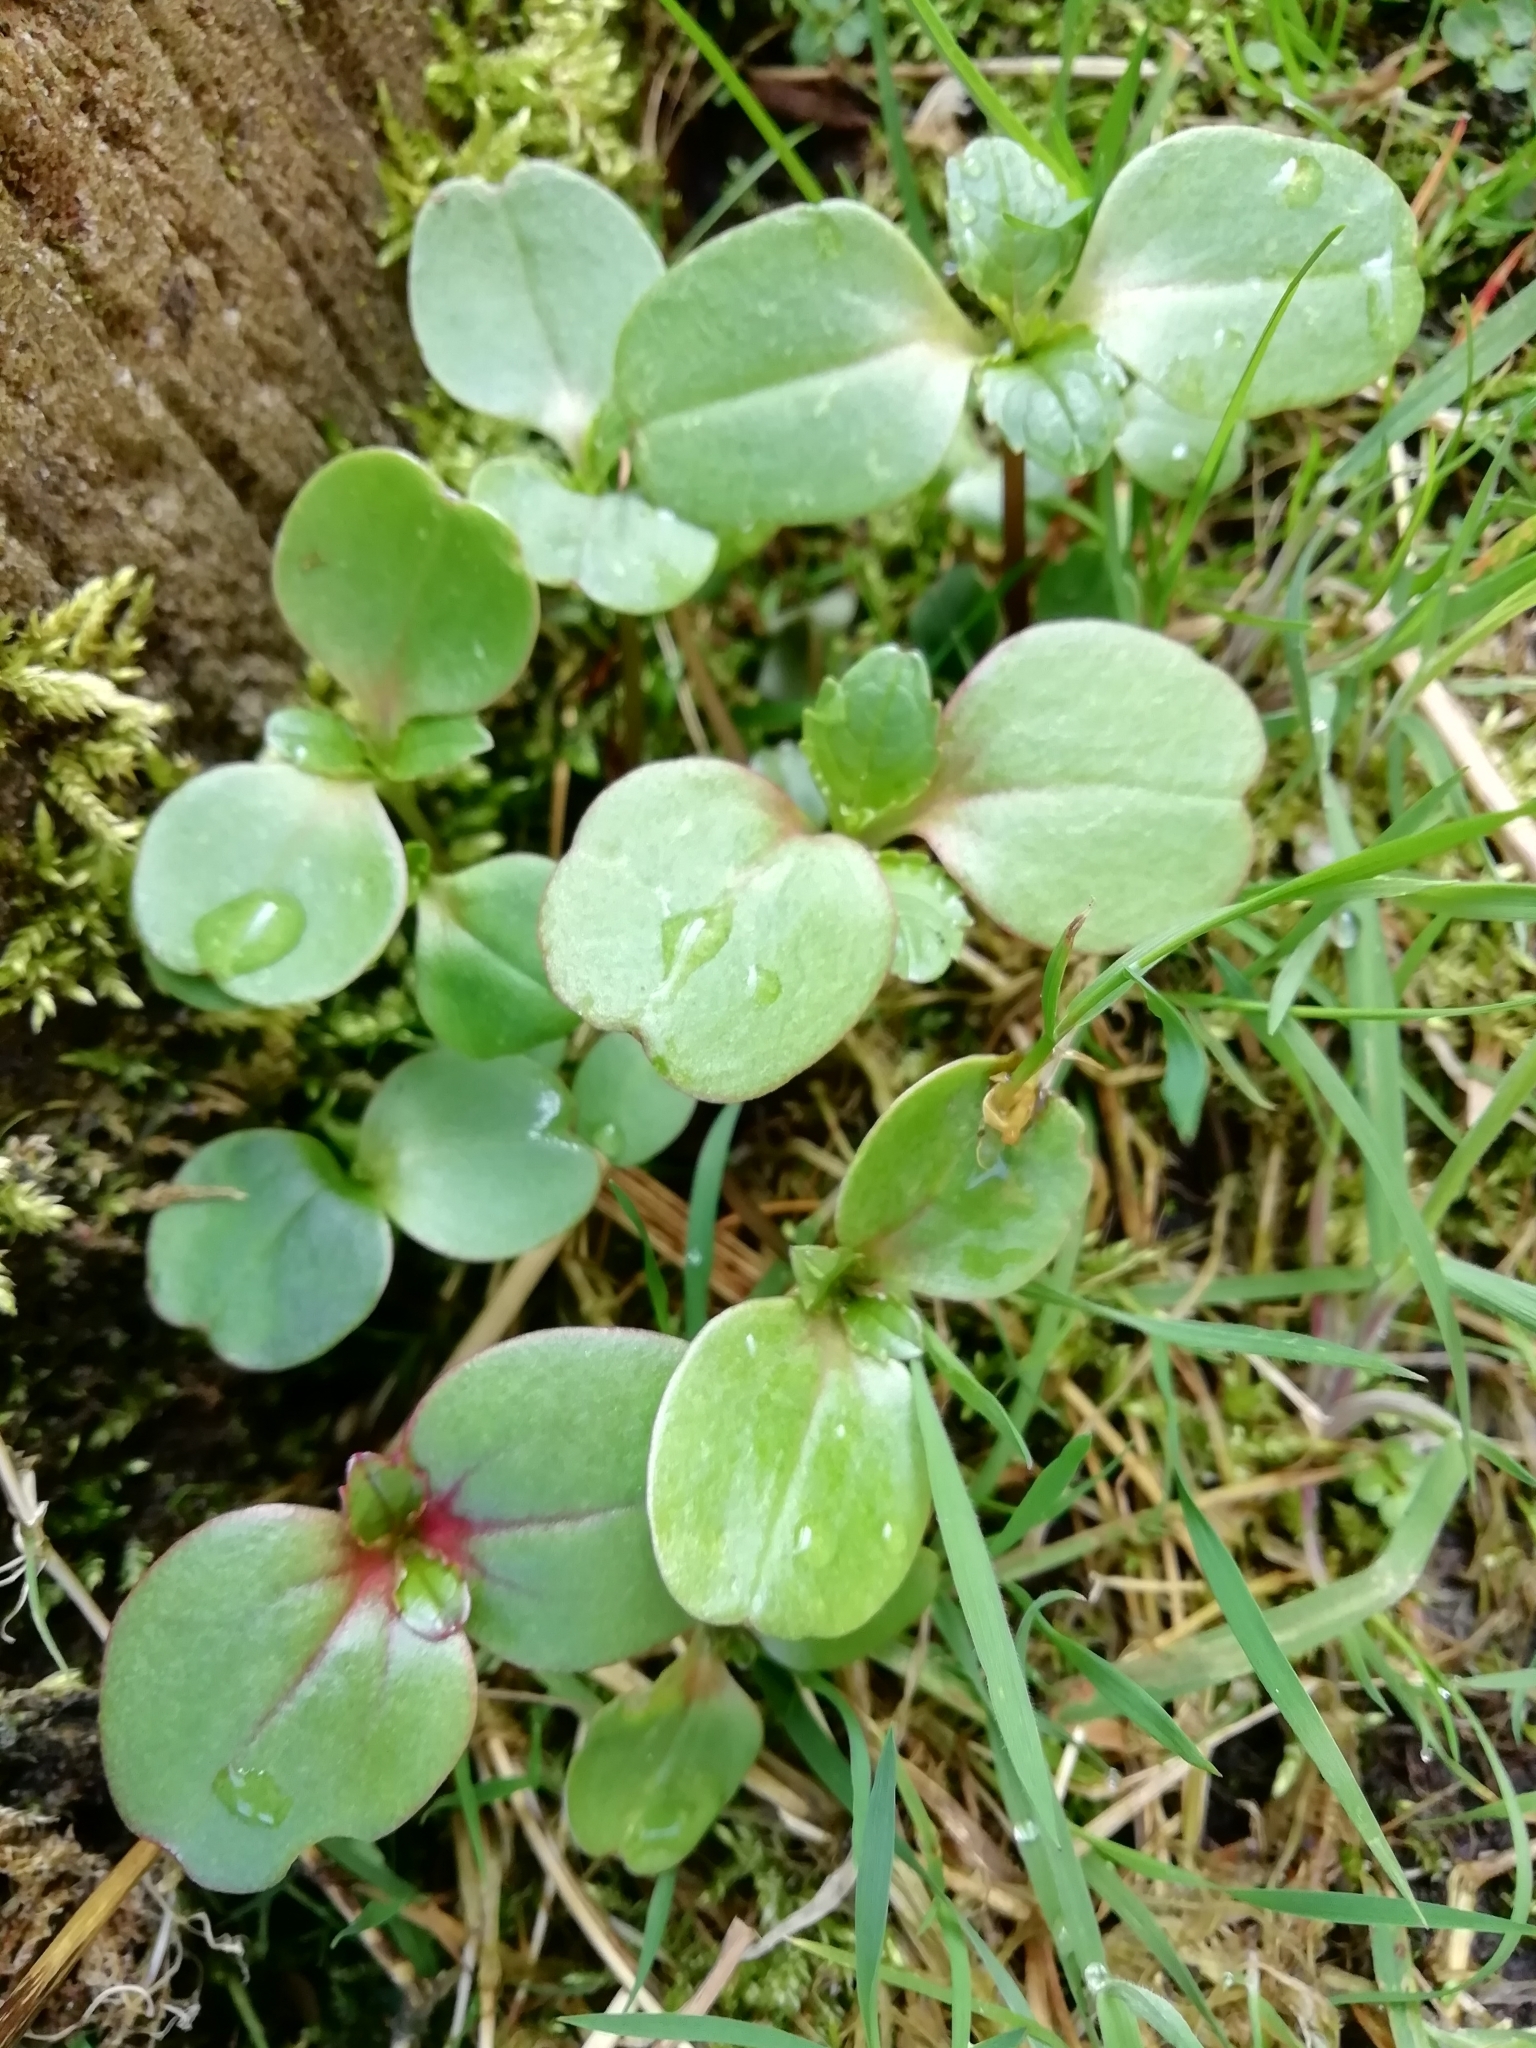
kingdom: Plantae
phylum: Tracheophyta
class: Magnoliopsida
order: Ericales
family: Balsaminaceae
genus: Impatiens
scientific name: Impatiens glandulifera
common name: Himalayan balsam
